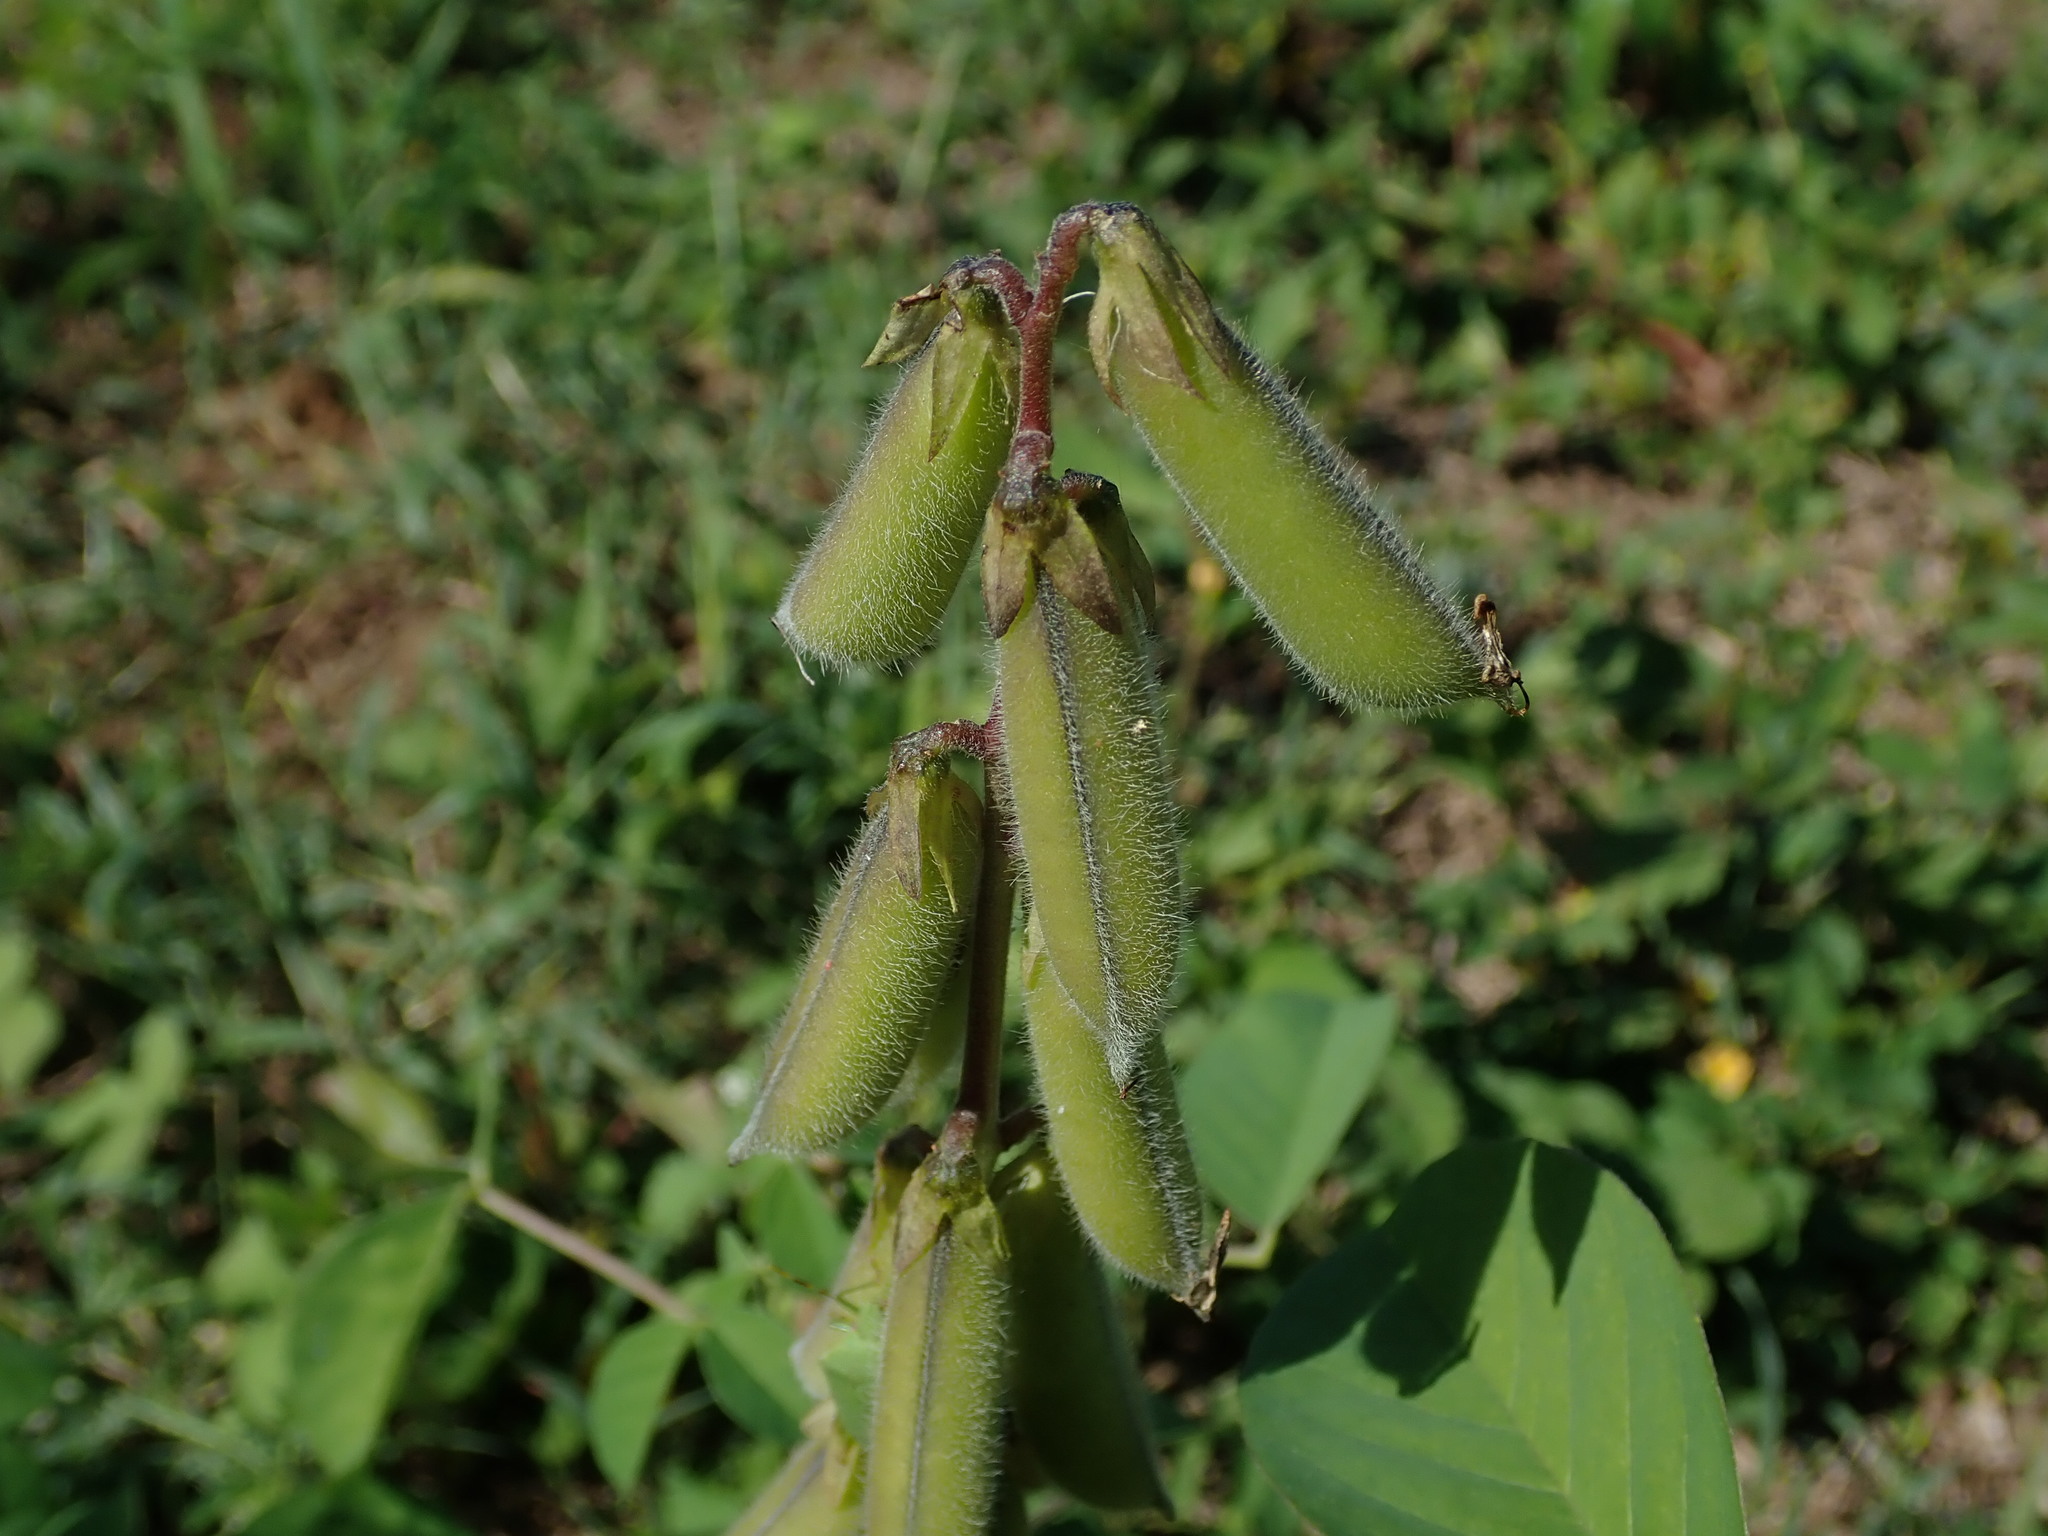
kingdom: Plantae
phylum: Tracheophyta
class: Magnoliopsida
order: Fabales
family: Fabaceae
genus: Crotalaria
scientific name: Crotalaria incana
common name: Shakeshake
